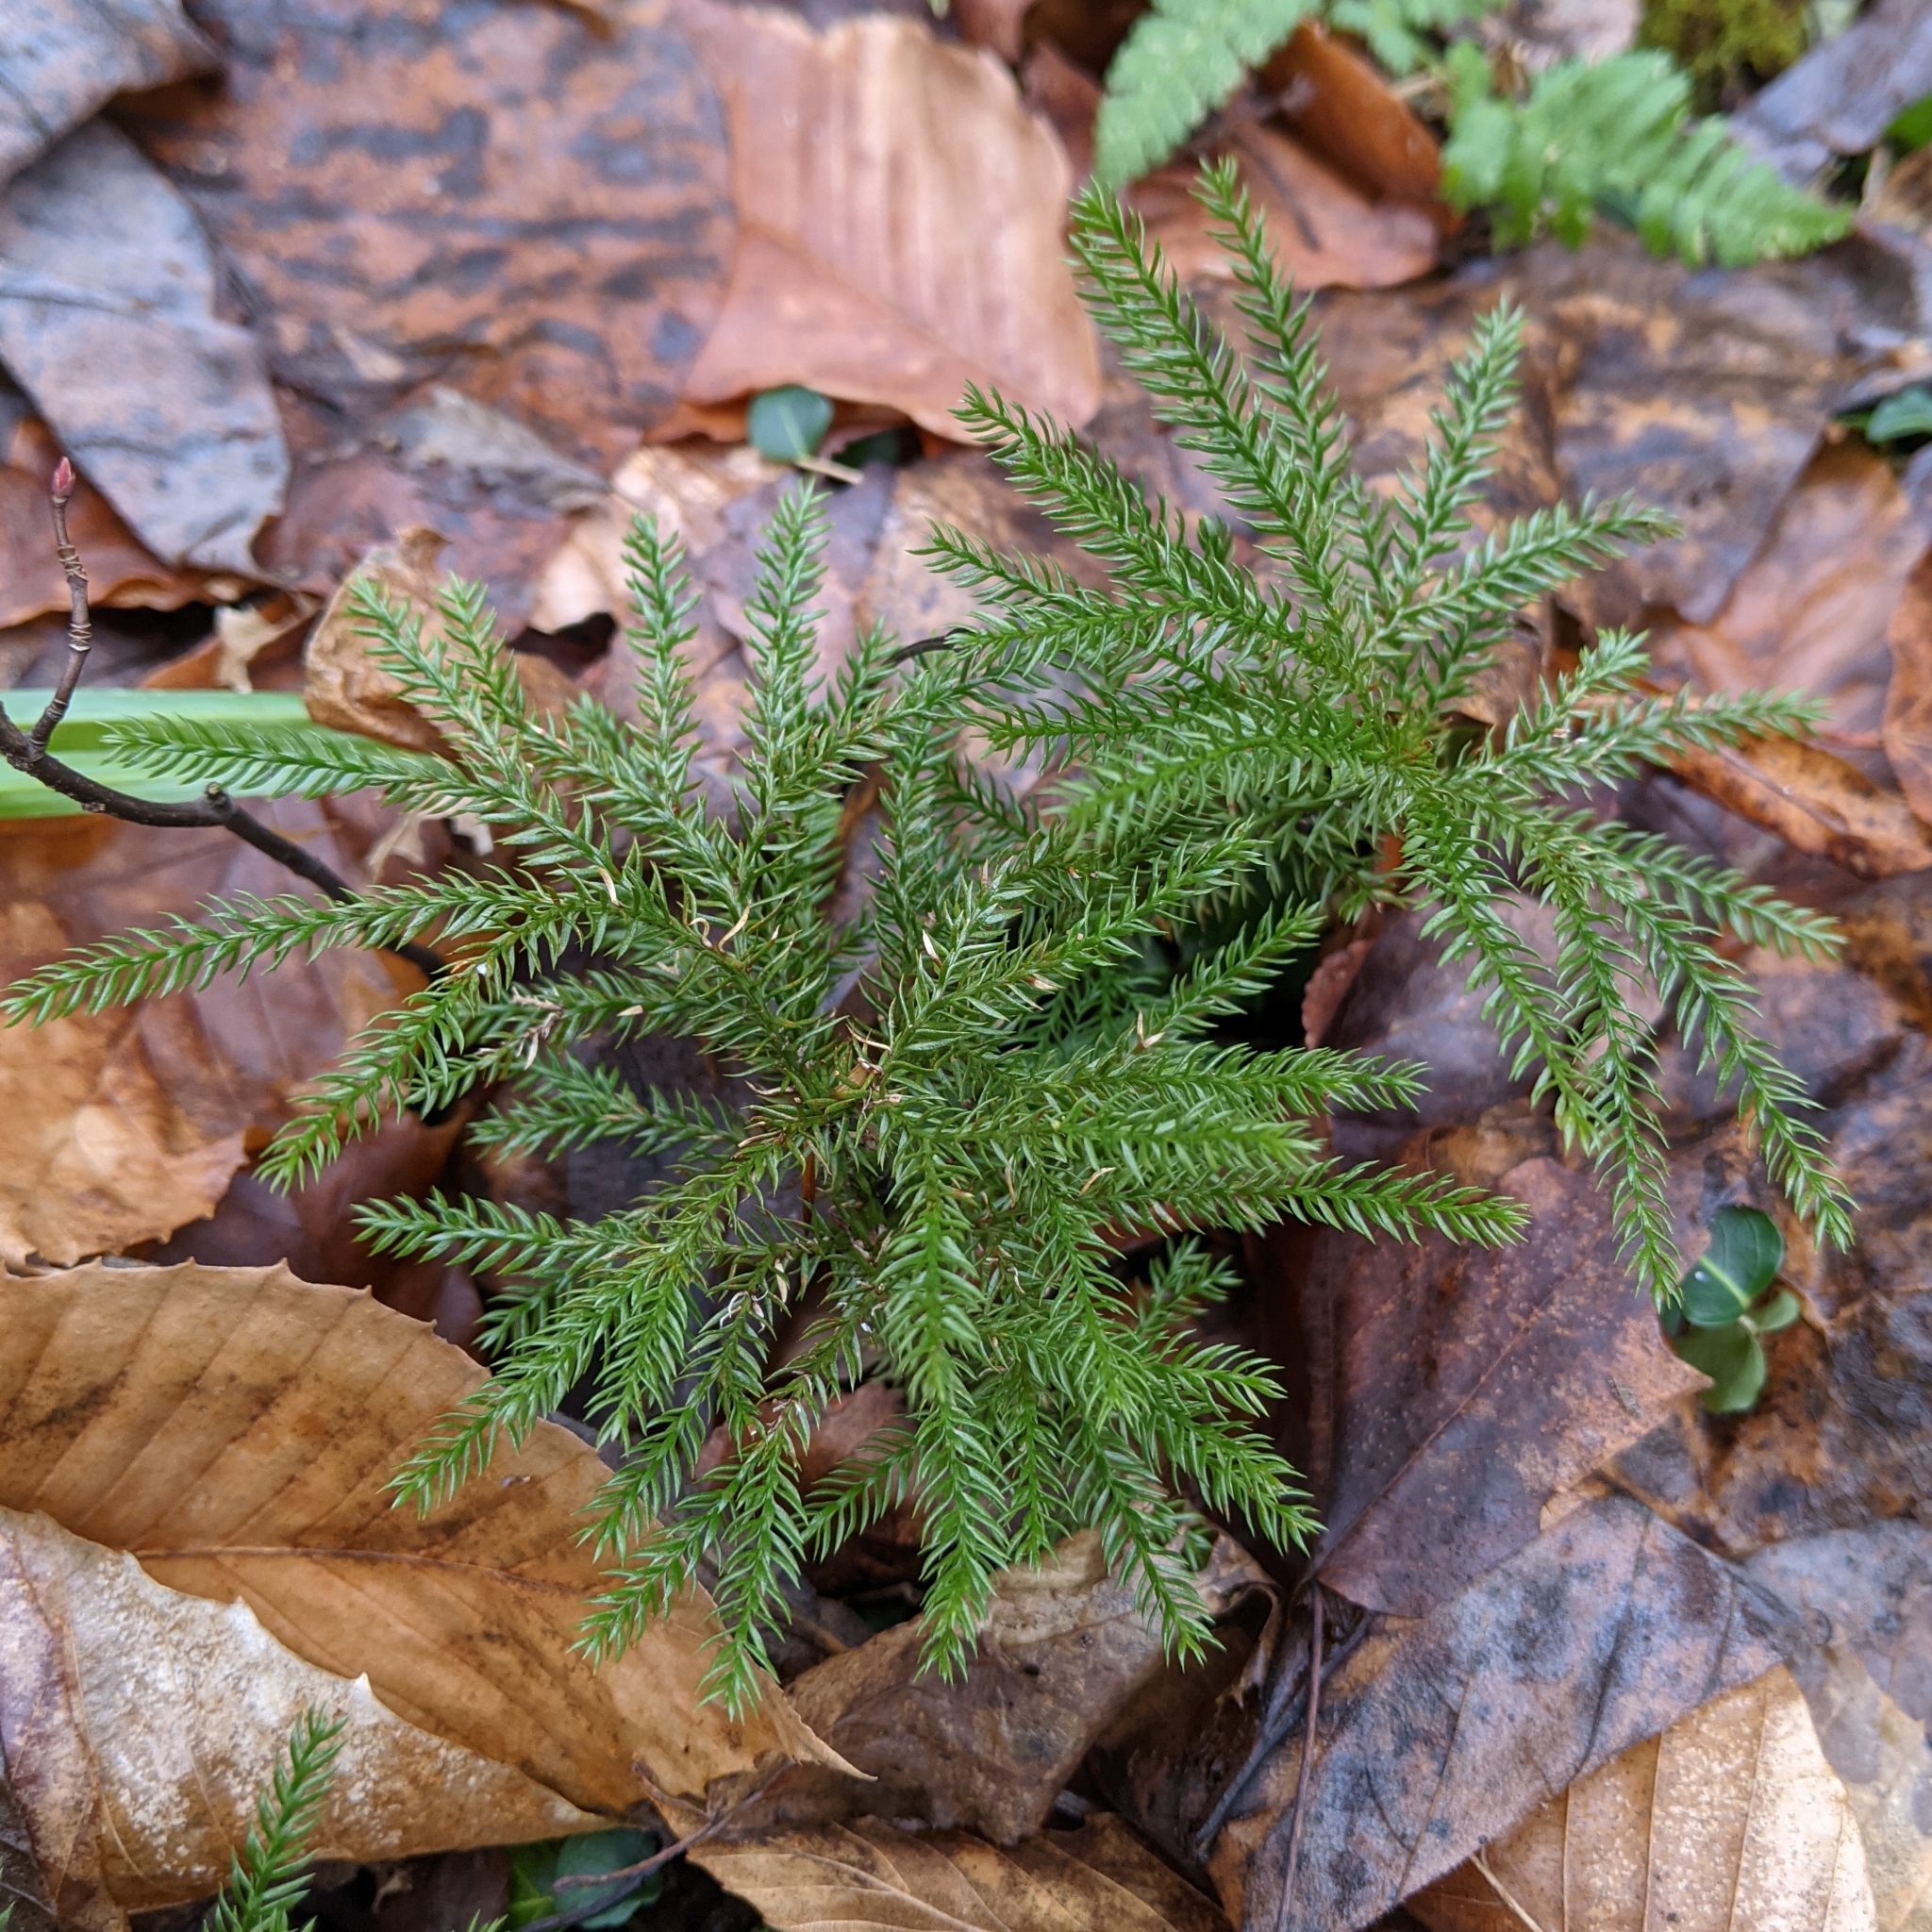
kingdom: Plantae
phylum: Tracheophyta
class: Lycopodiopsida
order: Lycopodiales
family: Lycopodiaceae
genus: Dendrolycopodium
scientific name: Dendrolycopodium dendroideum
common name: Northern tree-clubmoss
